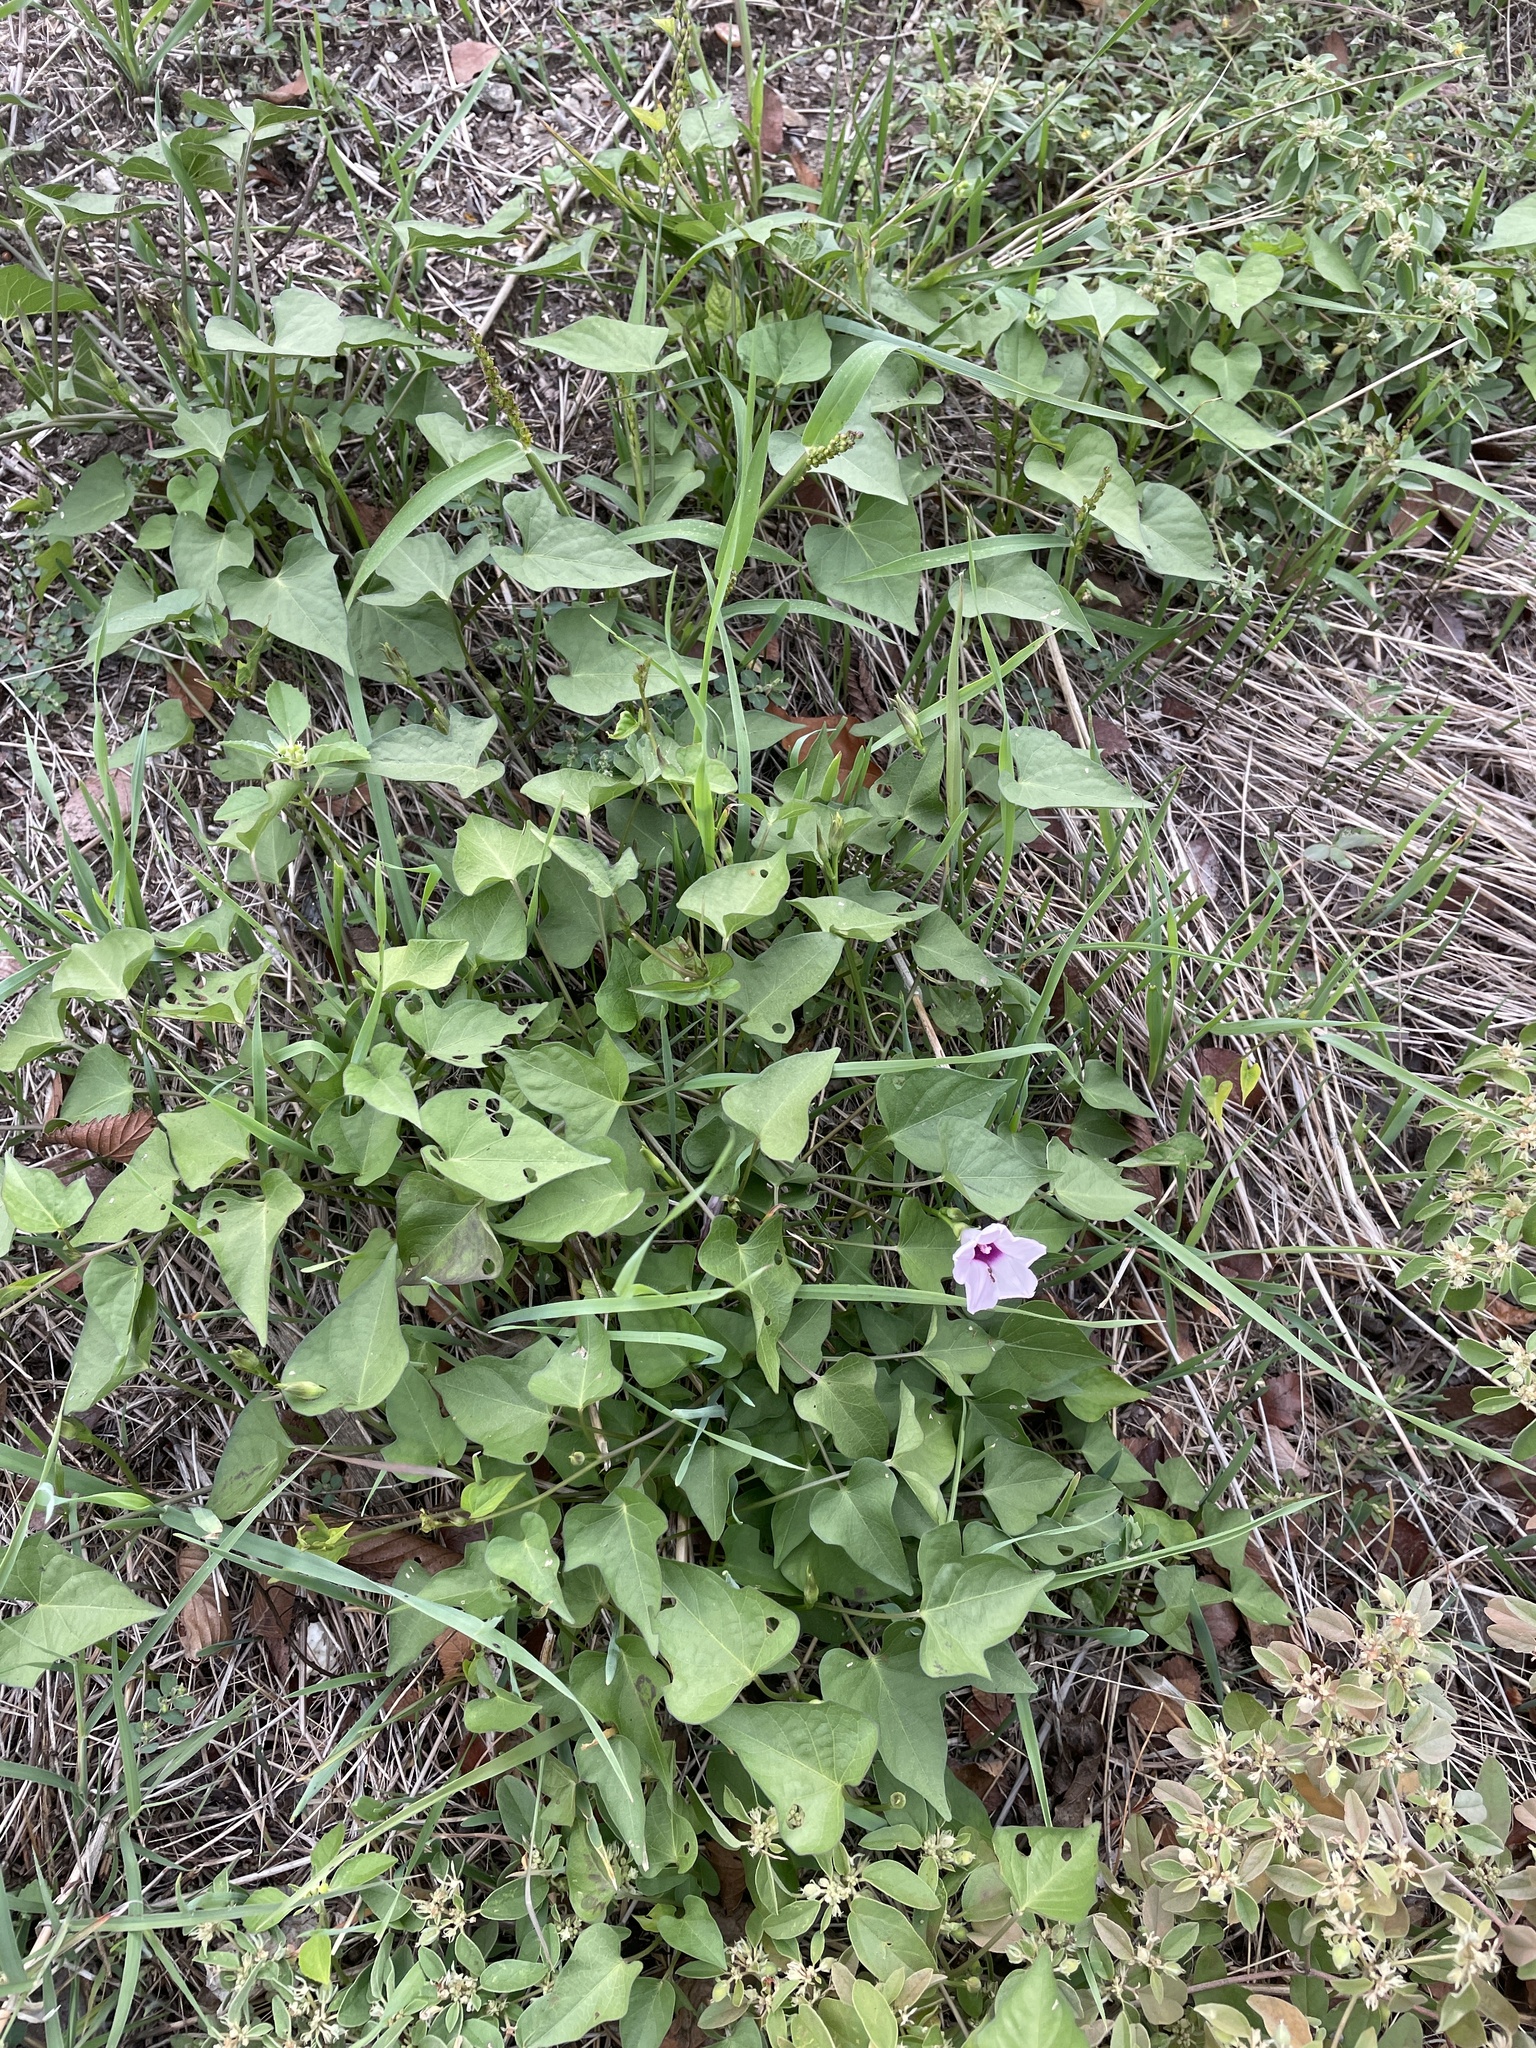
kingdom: Plantae
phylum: Tracheophyta
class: Magnoliopsida
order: Solanales
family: Convolvulaceae
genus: Ipomoea
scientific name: Ipomoea cordatotriloba
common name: Cotton morning glory
